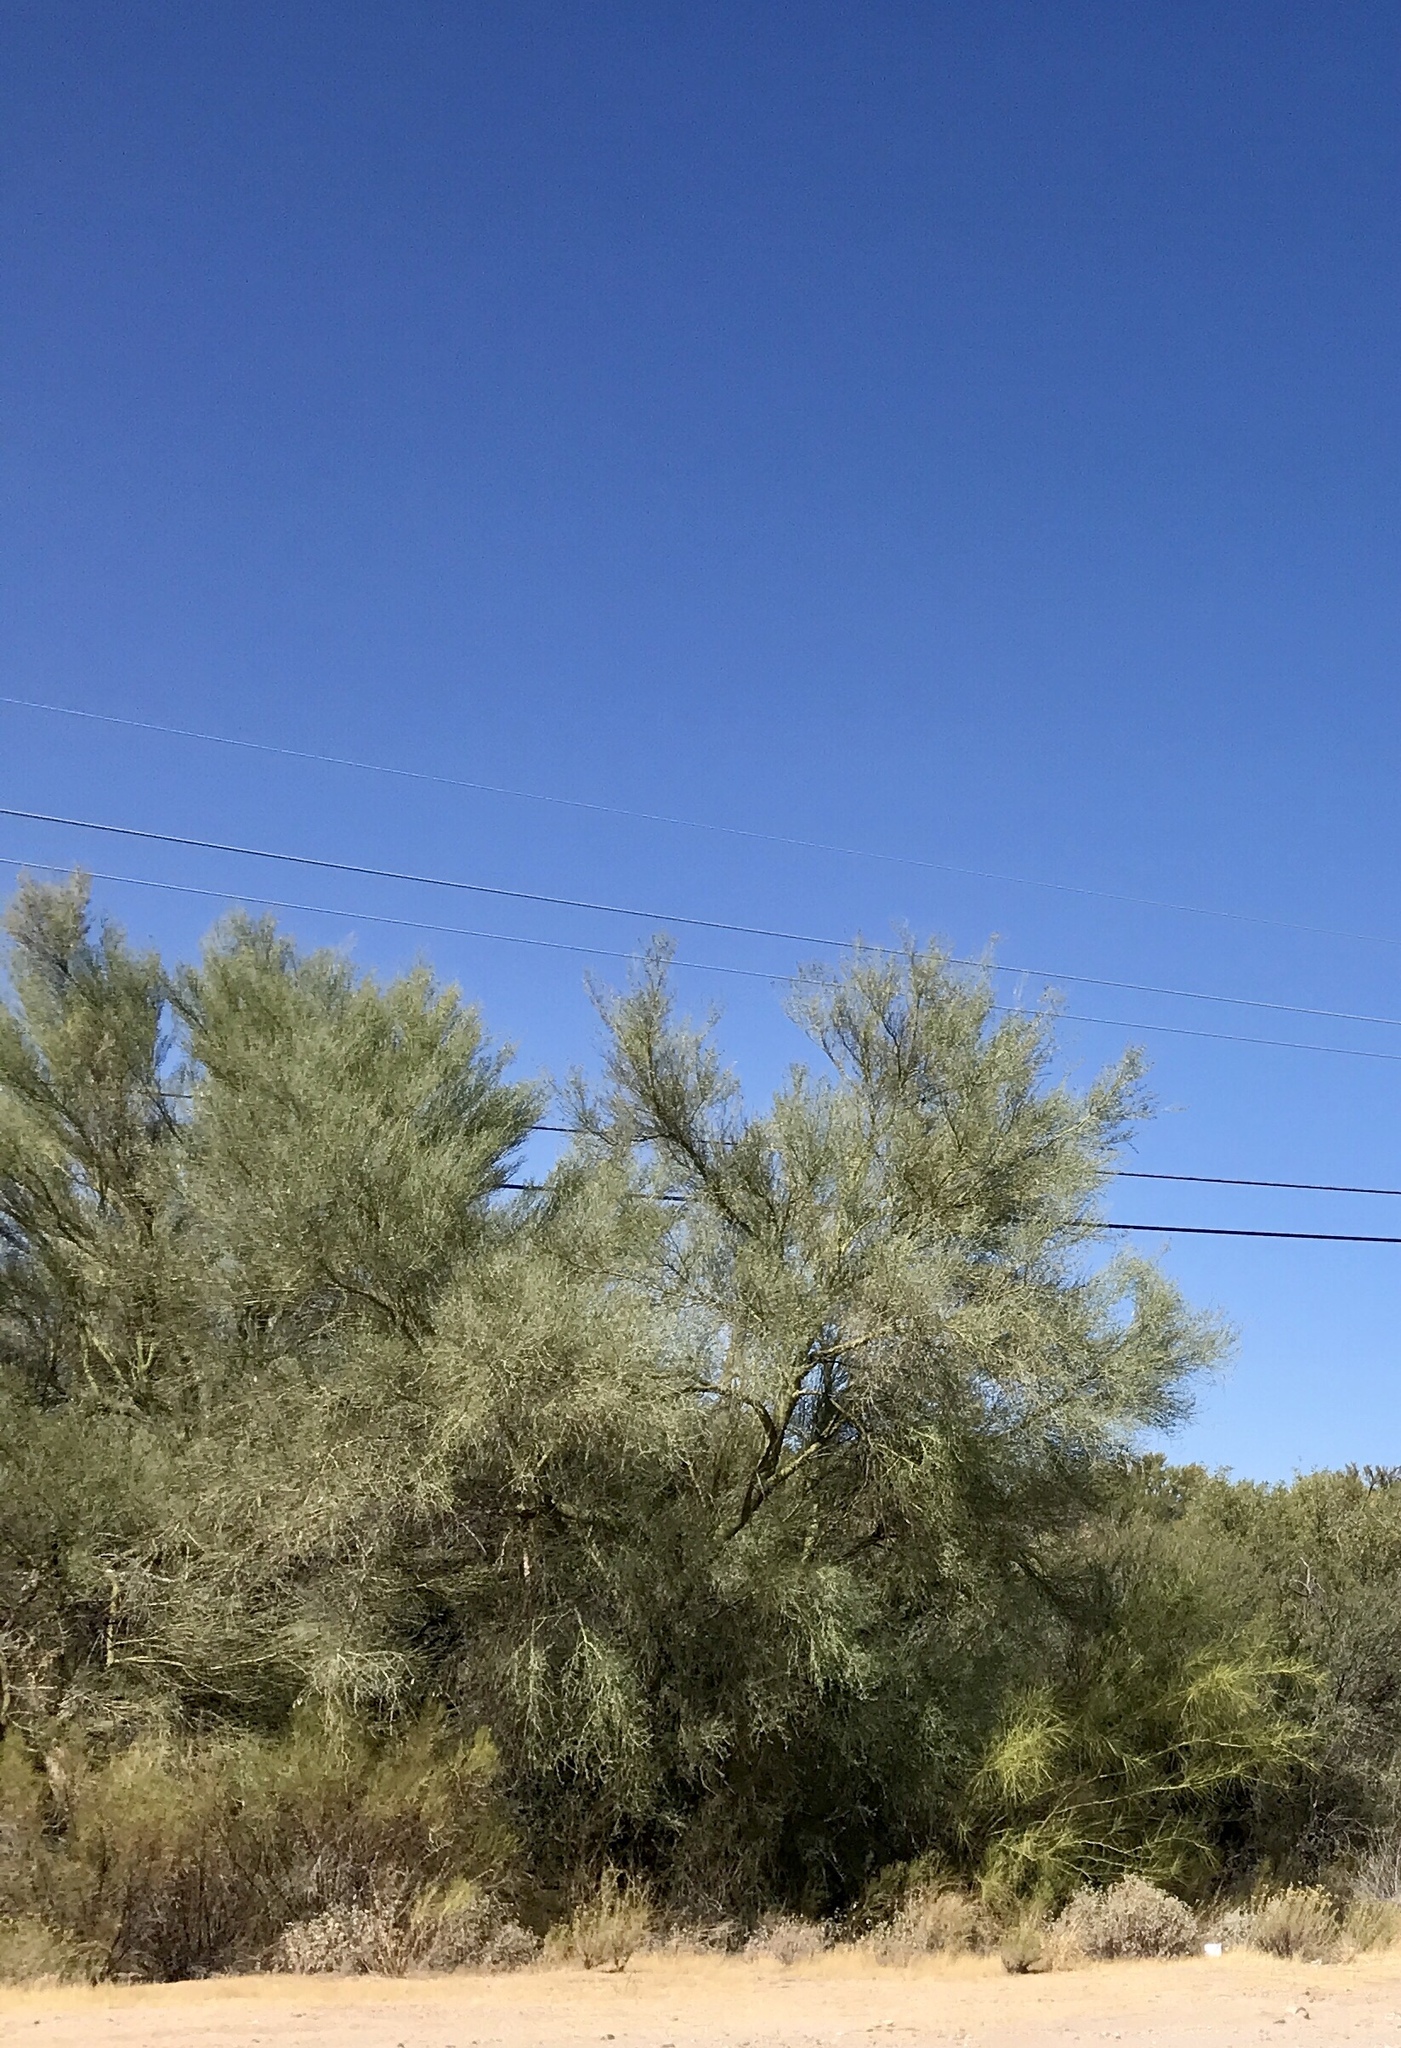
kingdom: Plantae
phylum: Tracheophyta
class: Magnoliopsida
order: Fabales
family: Fabaceae
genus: Parkinsonia
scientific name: Parkinsonia florida
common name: Blue paloverde
